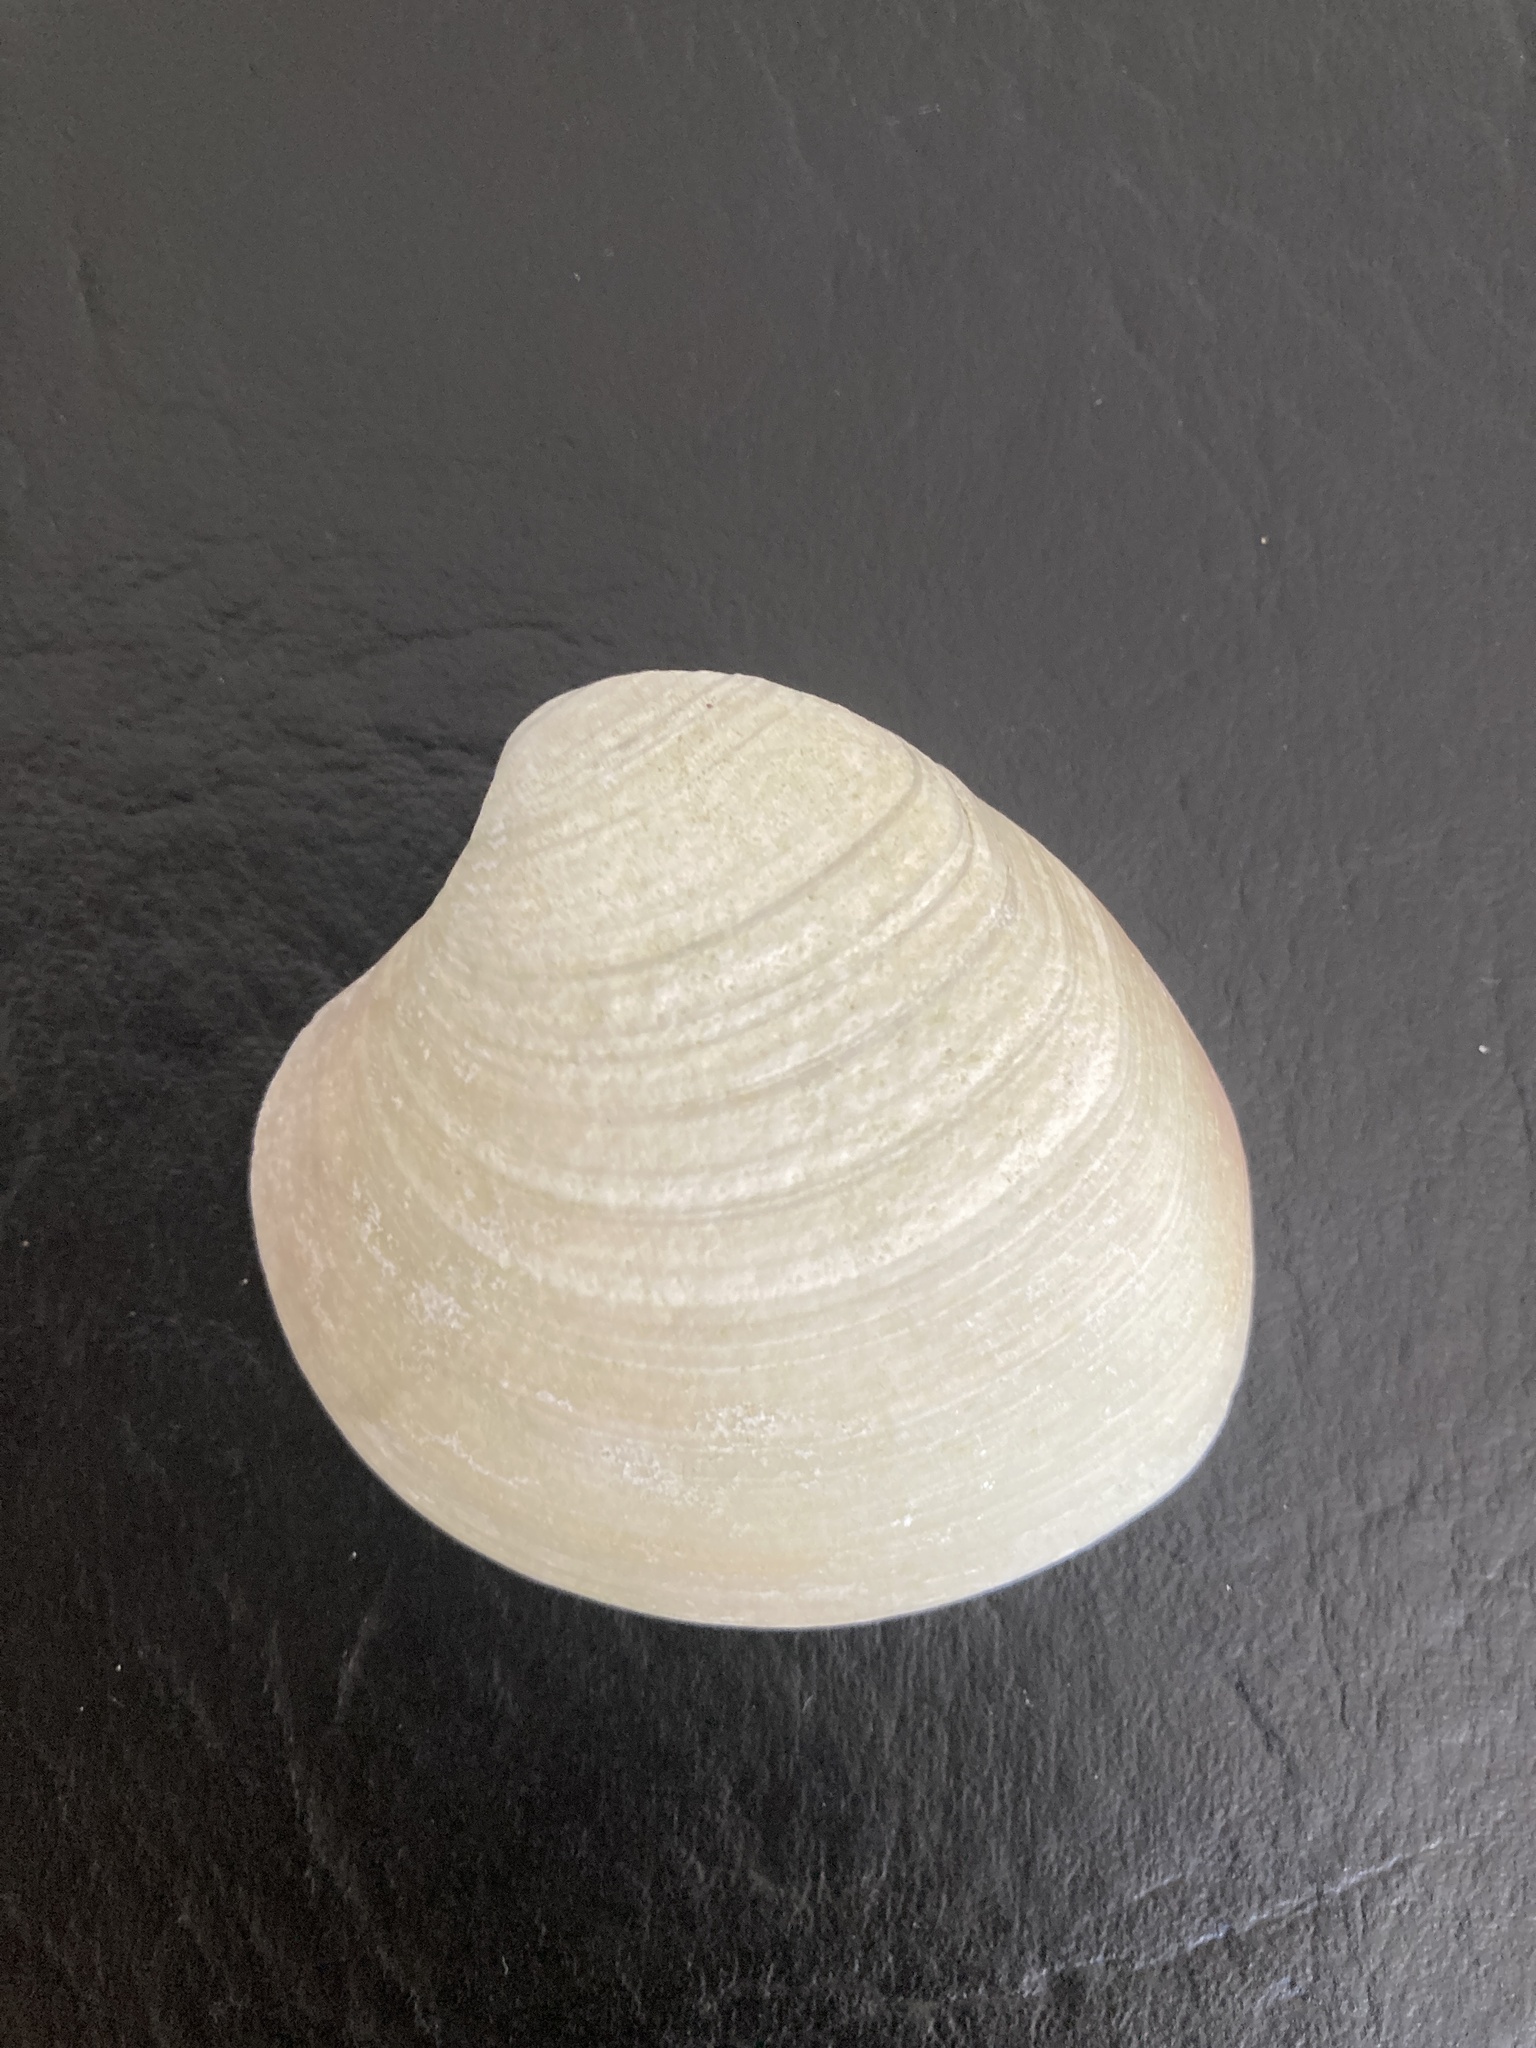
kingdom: Animalia
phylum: Mollusca
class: Bivalvia
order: Venerida
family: Veneridae
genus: Retrotapes
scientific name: Retrotapes exalbidus
